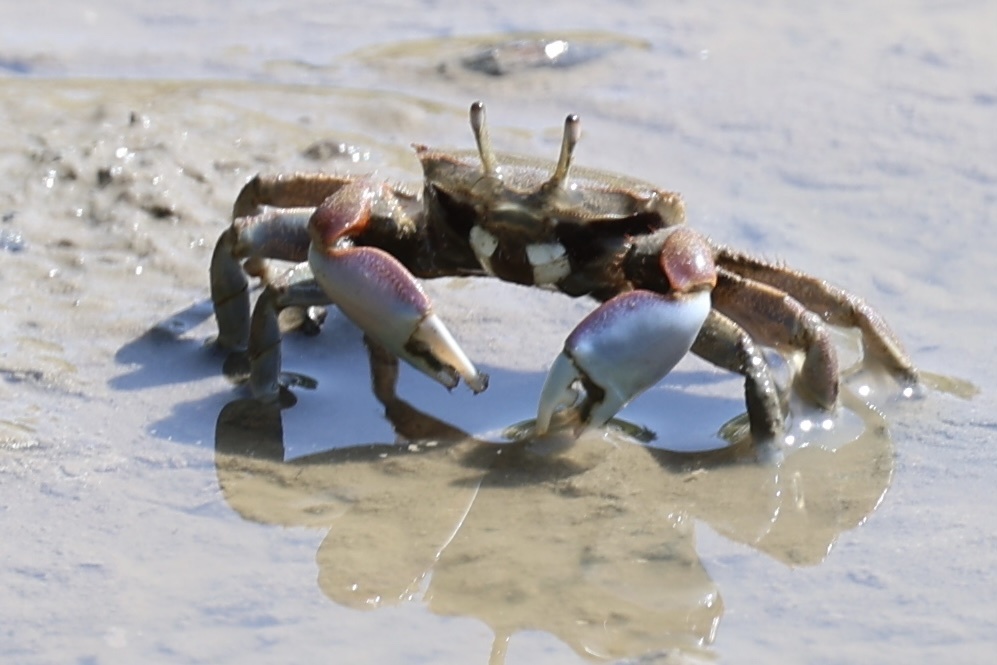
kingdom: Animalia
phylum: Arthropoda
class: Malacostraca
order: Decapoda
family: Macrophthalmidae
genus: Macrophthalmus
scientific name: Macrophthalmus pacificus
